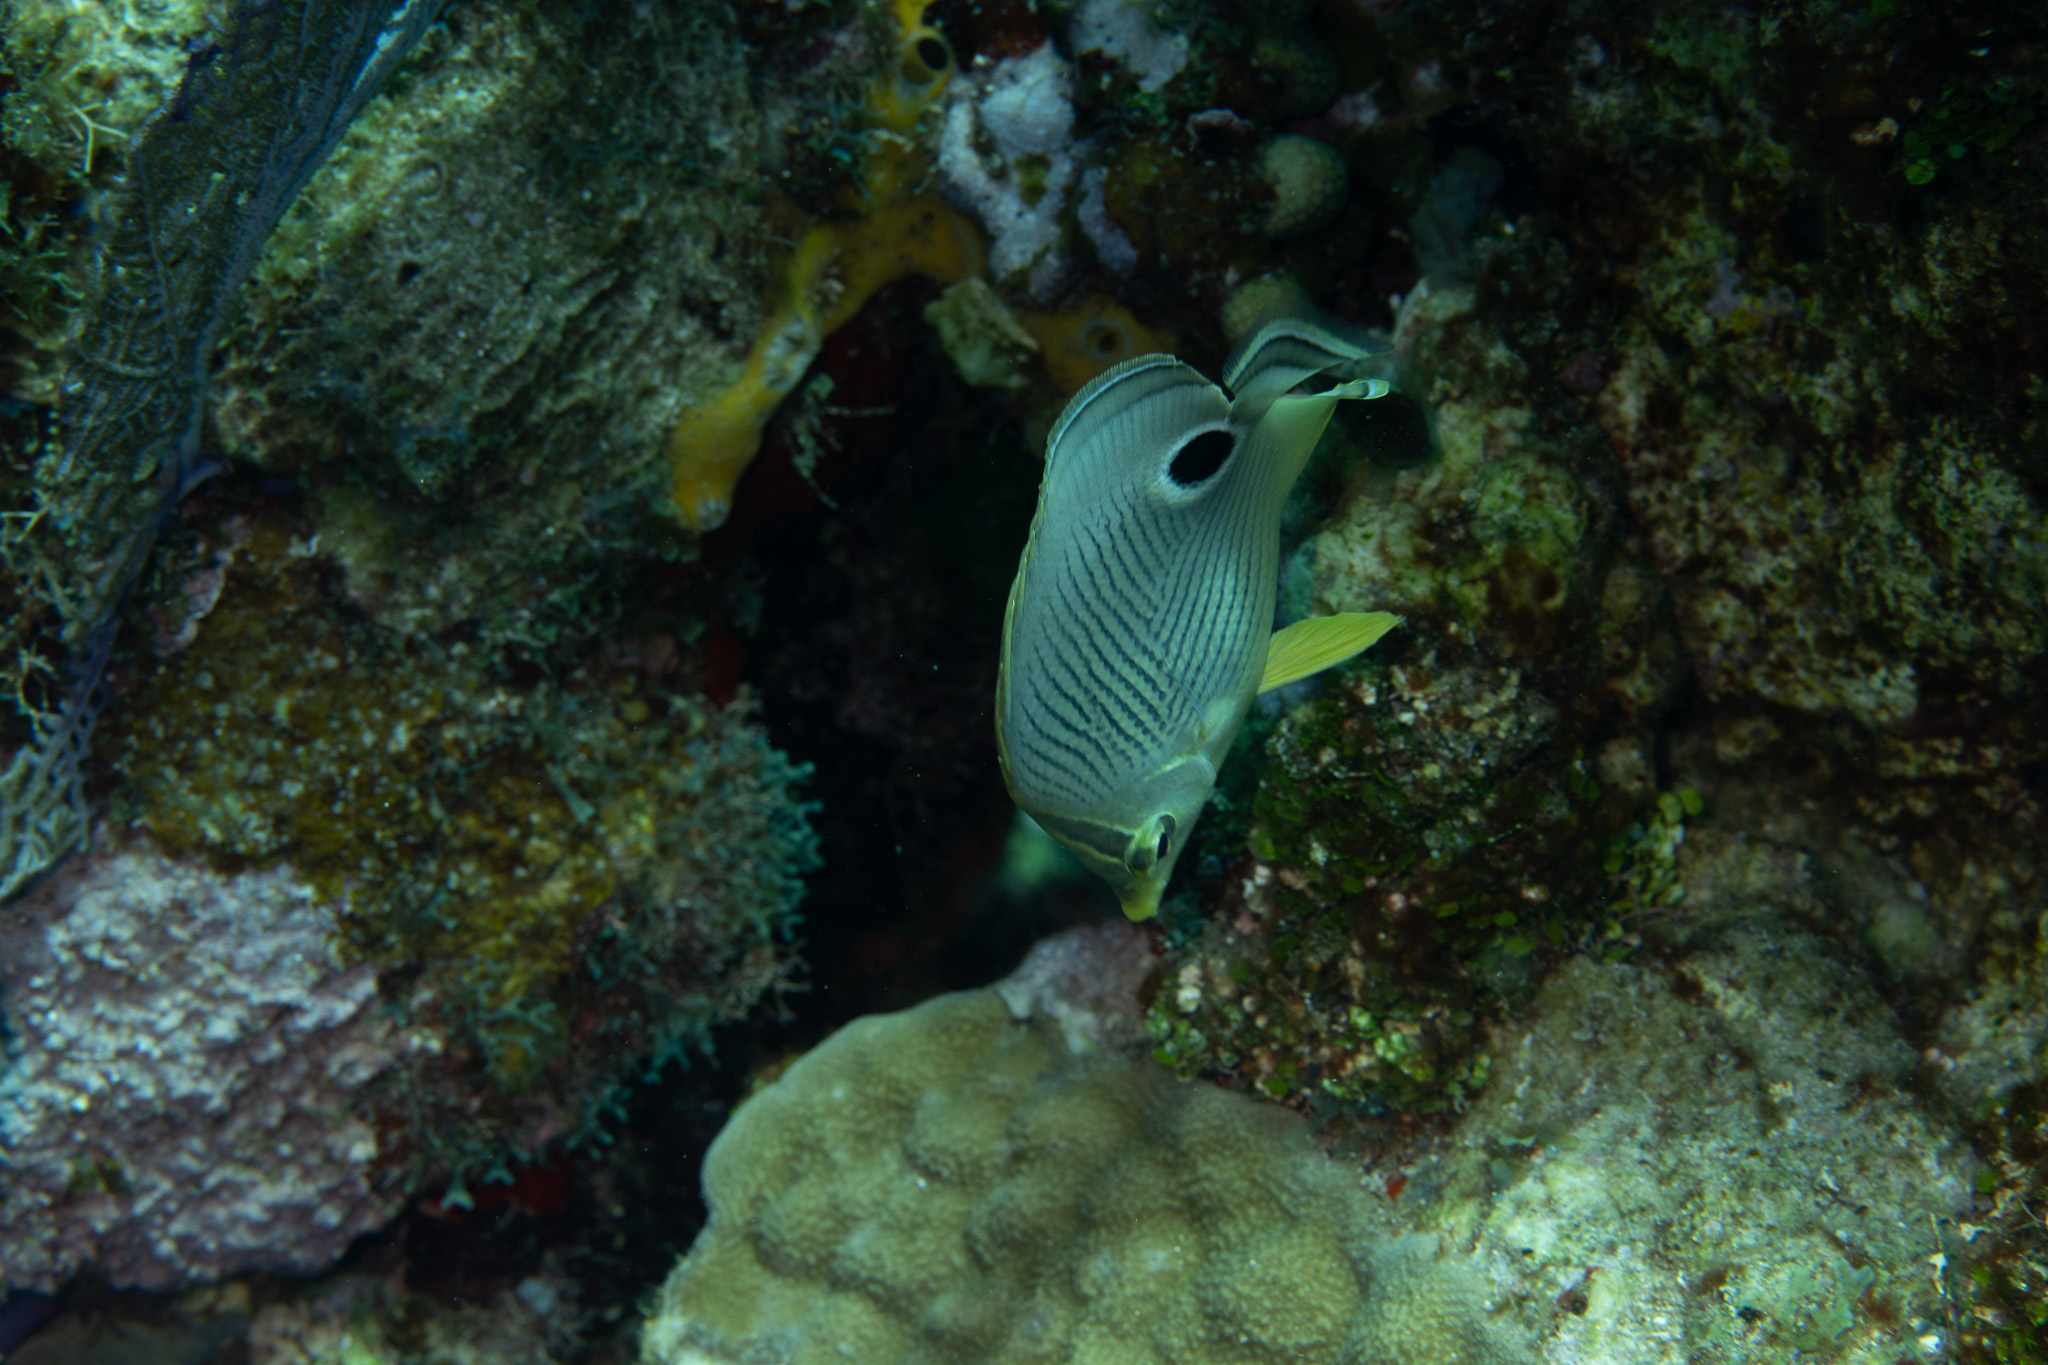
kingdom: Animalia
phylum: Chordata
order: Perciformes
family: Chaetodontidae
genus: Chaetodon
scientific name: Chaetodon capistratus
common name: Kete
